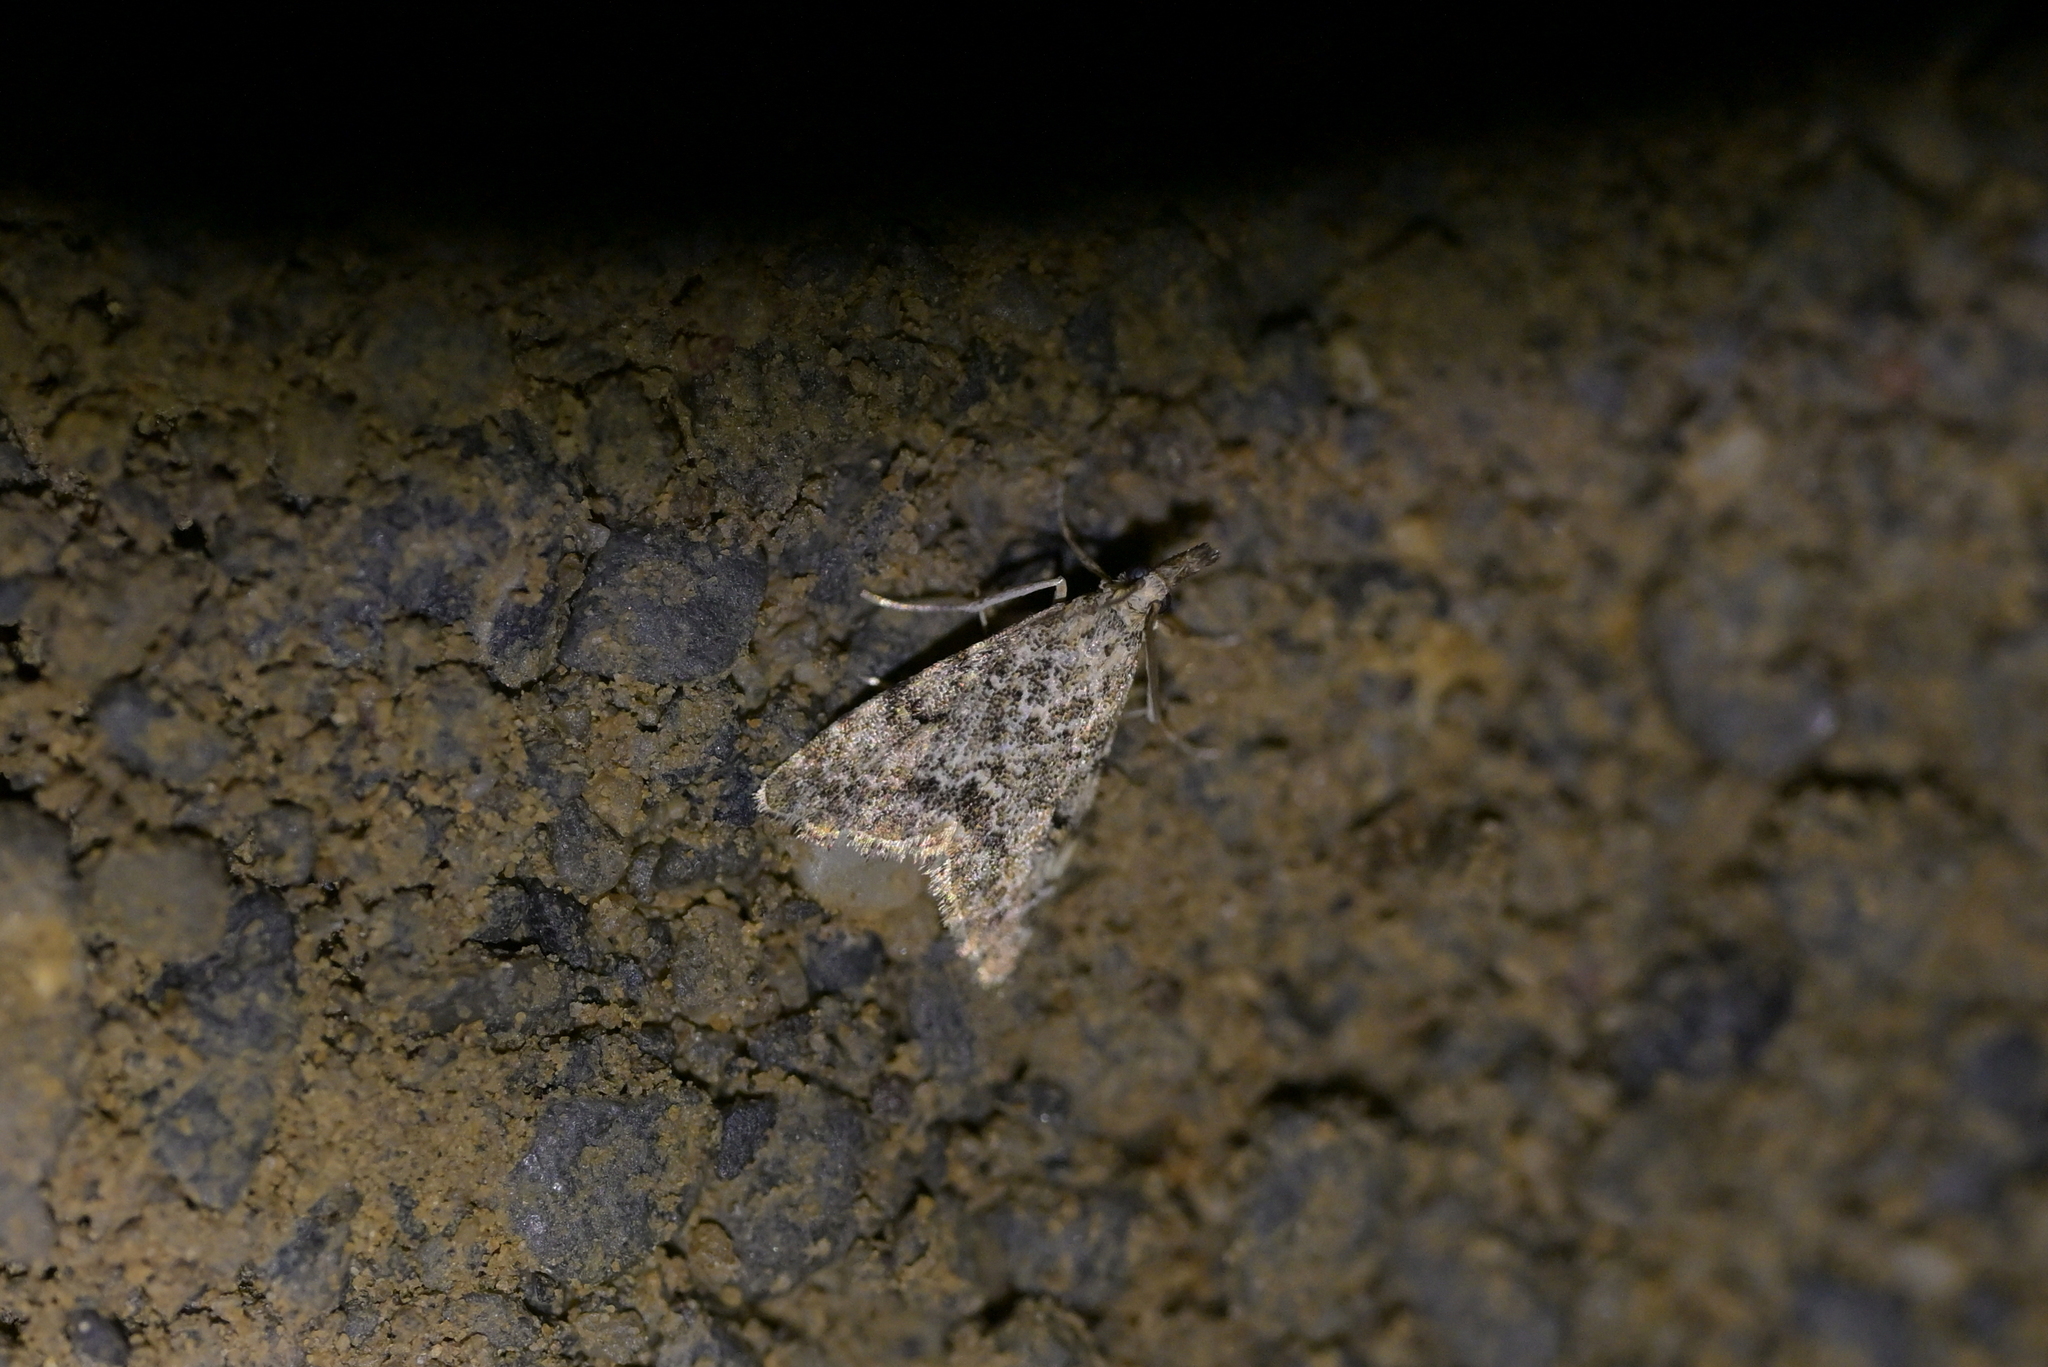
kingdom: Animalia
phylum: Arthropoda
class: Insecta
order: Lepidoptera
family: Crambidae
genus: Glaucocharis
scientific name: Glaucocharis elaina
